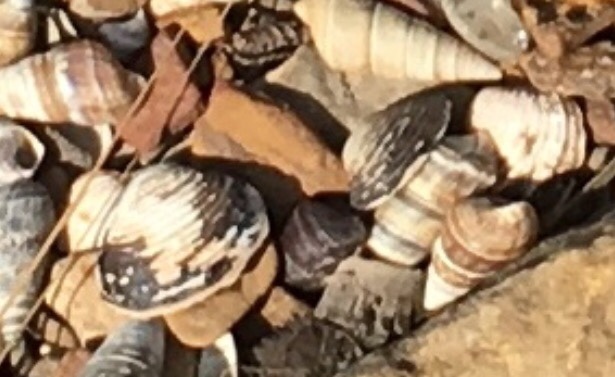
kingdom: Animalia
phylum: Mollusca
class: Bivalvia
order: Venerida
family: Cyrenidae
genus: Corbicula
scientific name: Corbicula fluminea
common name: Asian clam
